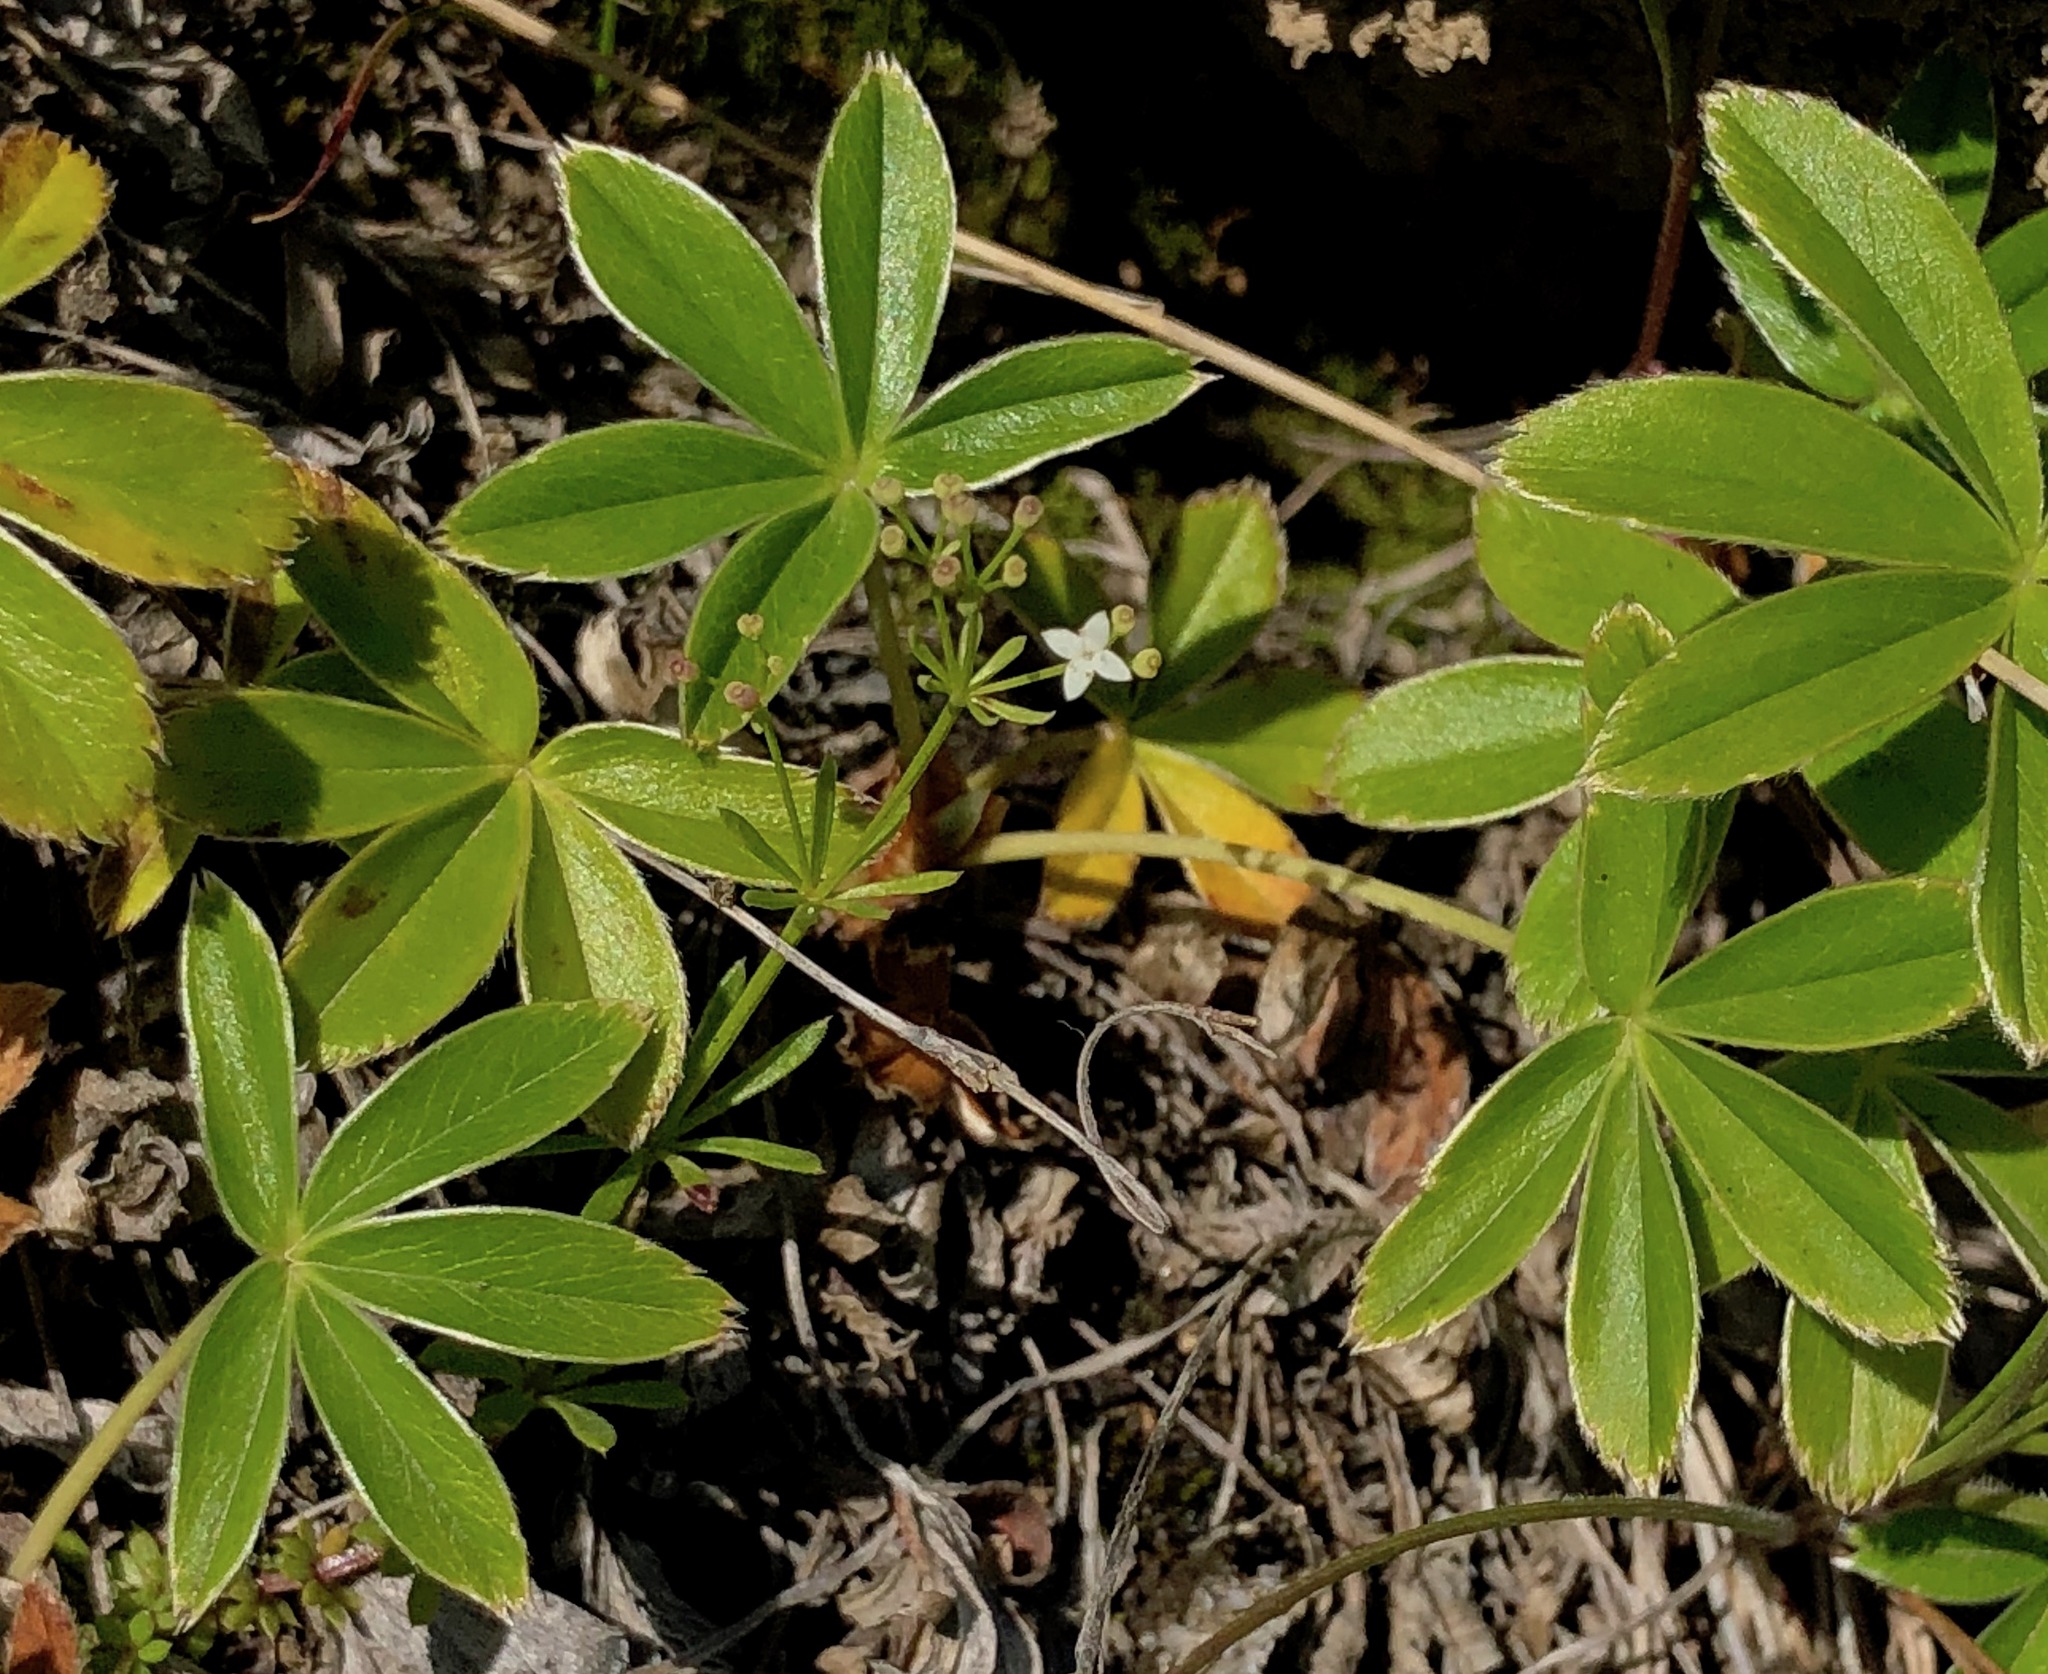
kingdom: Plantae
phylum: Tracheophyta
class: Magnoliopsida
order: Rosales
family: Rosaceae
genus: Alchemilla
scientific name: Alchemilla alpina
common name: Alpine lady's-mantle
